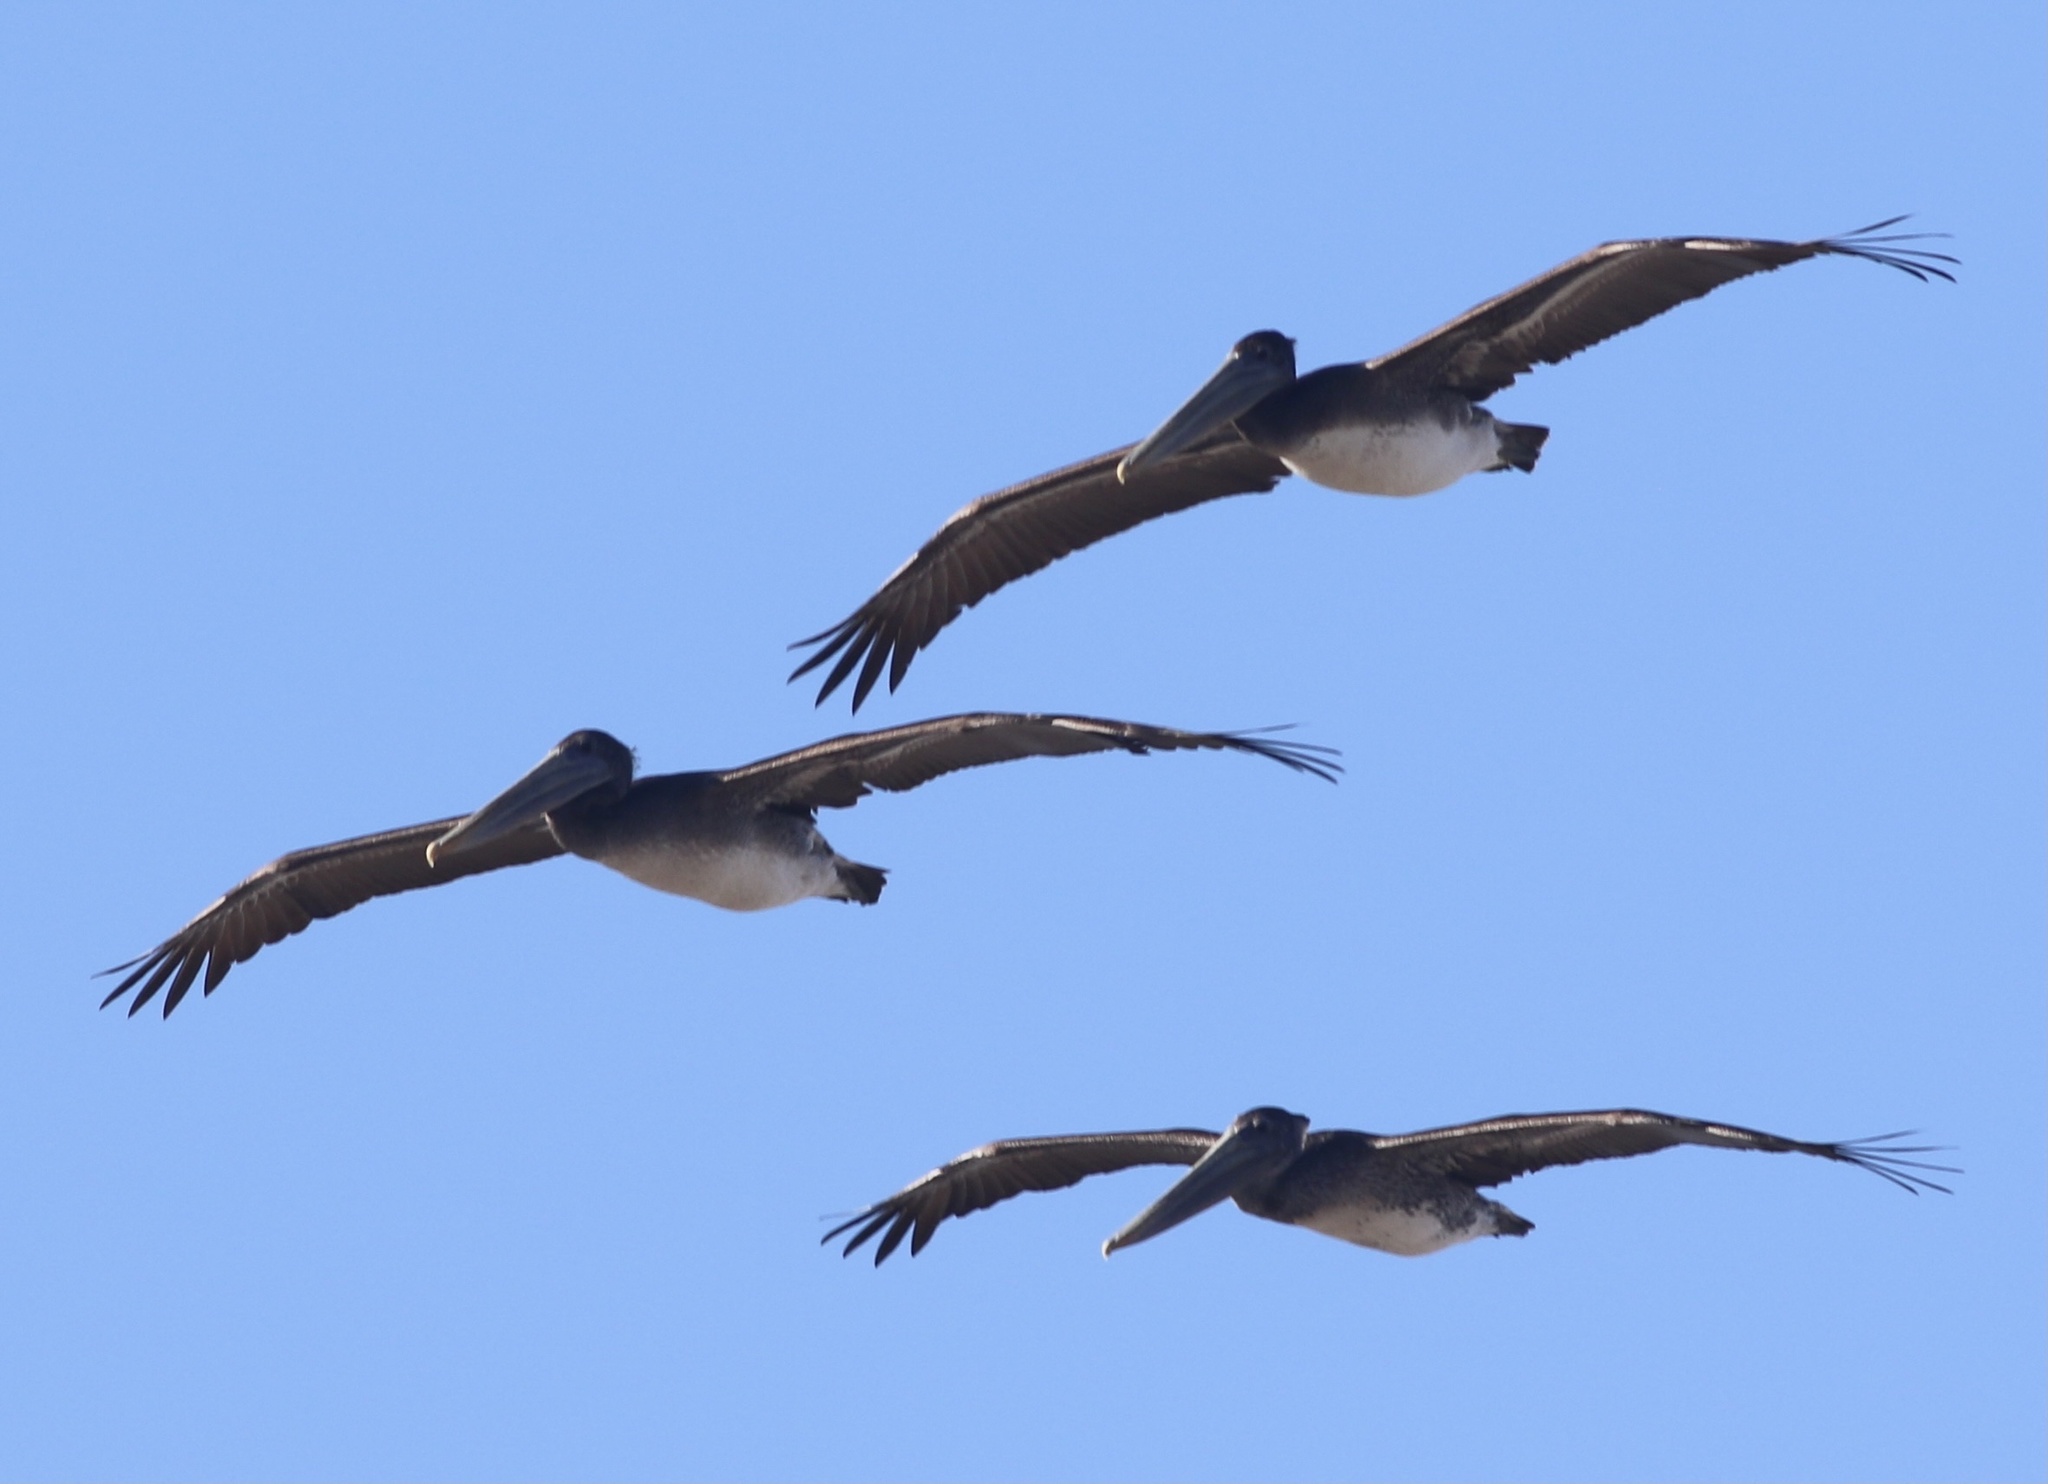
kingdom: Animalia
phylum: Chordata
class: Aves
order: Pelecaniformes
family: Pelecanidae
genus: Pelecanus
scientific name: Pelecanus occidentalis
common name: Brown pelican
